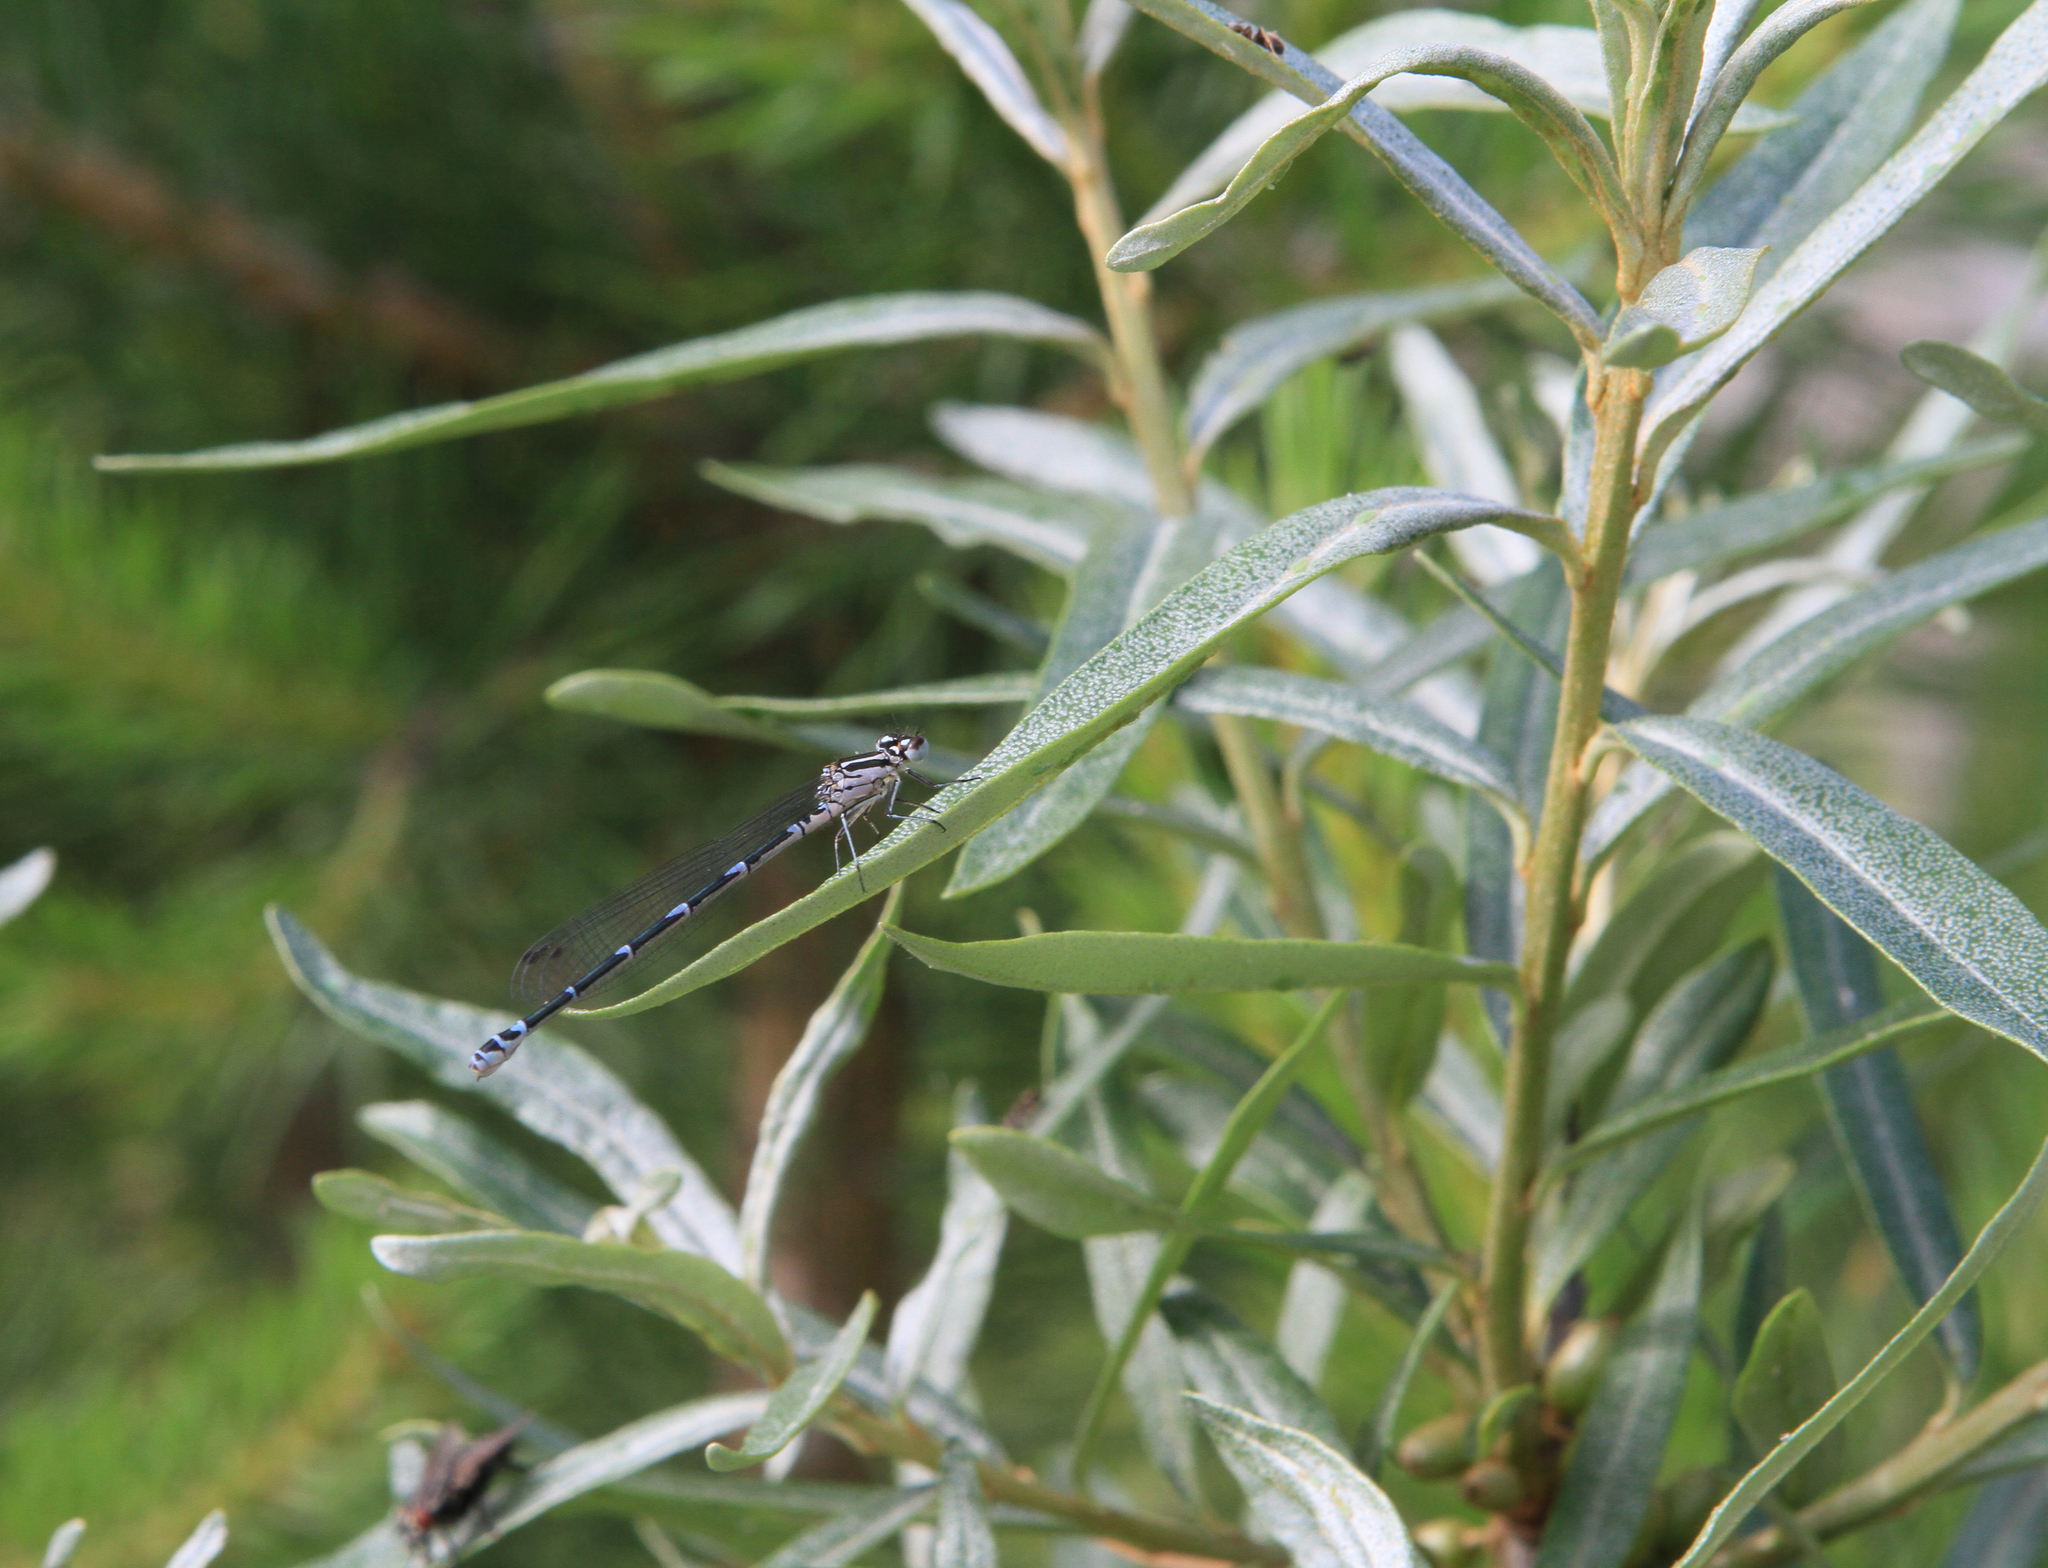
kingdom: Plantae
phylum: Tracheophyta
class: Magnoliopsida
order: Rosales
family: Elaeagnaceae
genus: Hippophae
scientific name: Hippophae rhamnoides
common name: Sea-buckthorn
